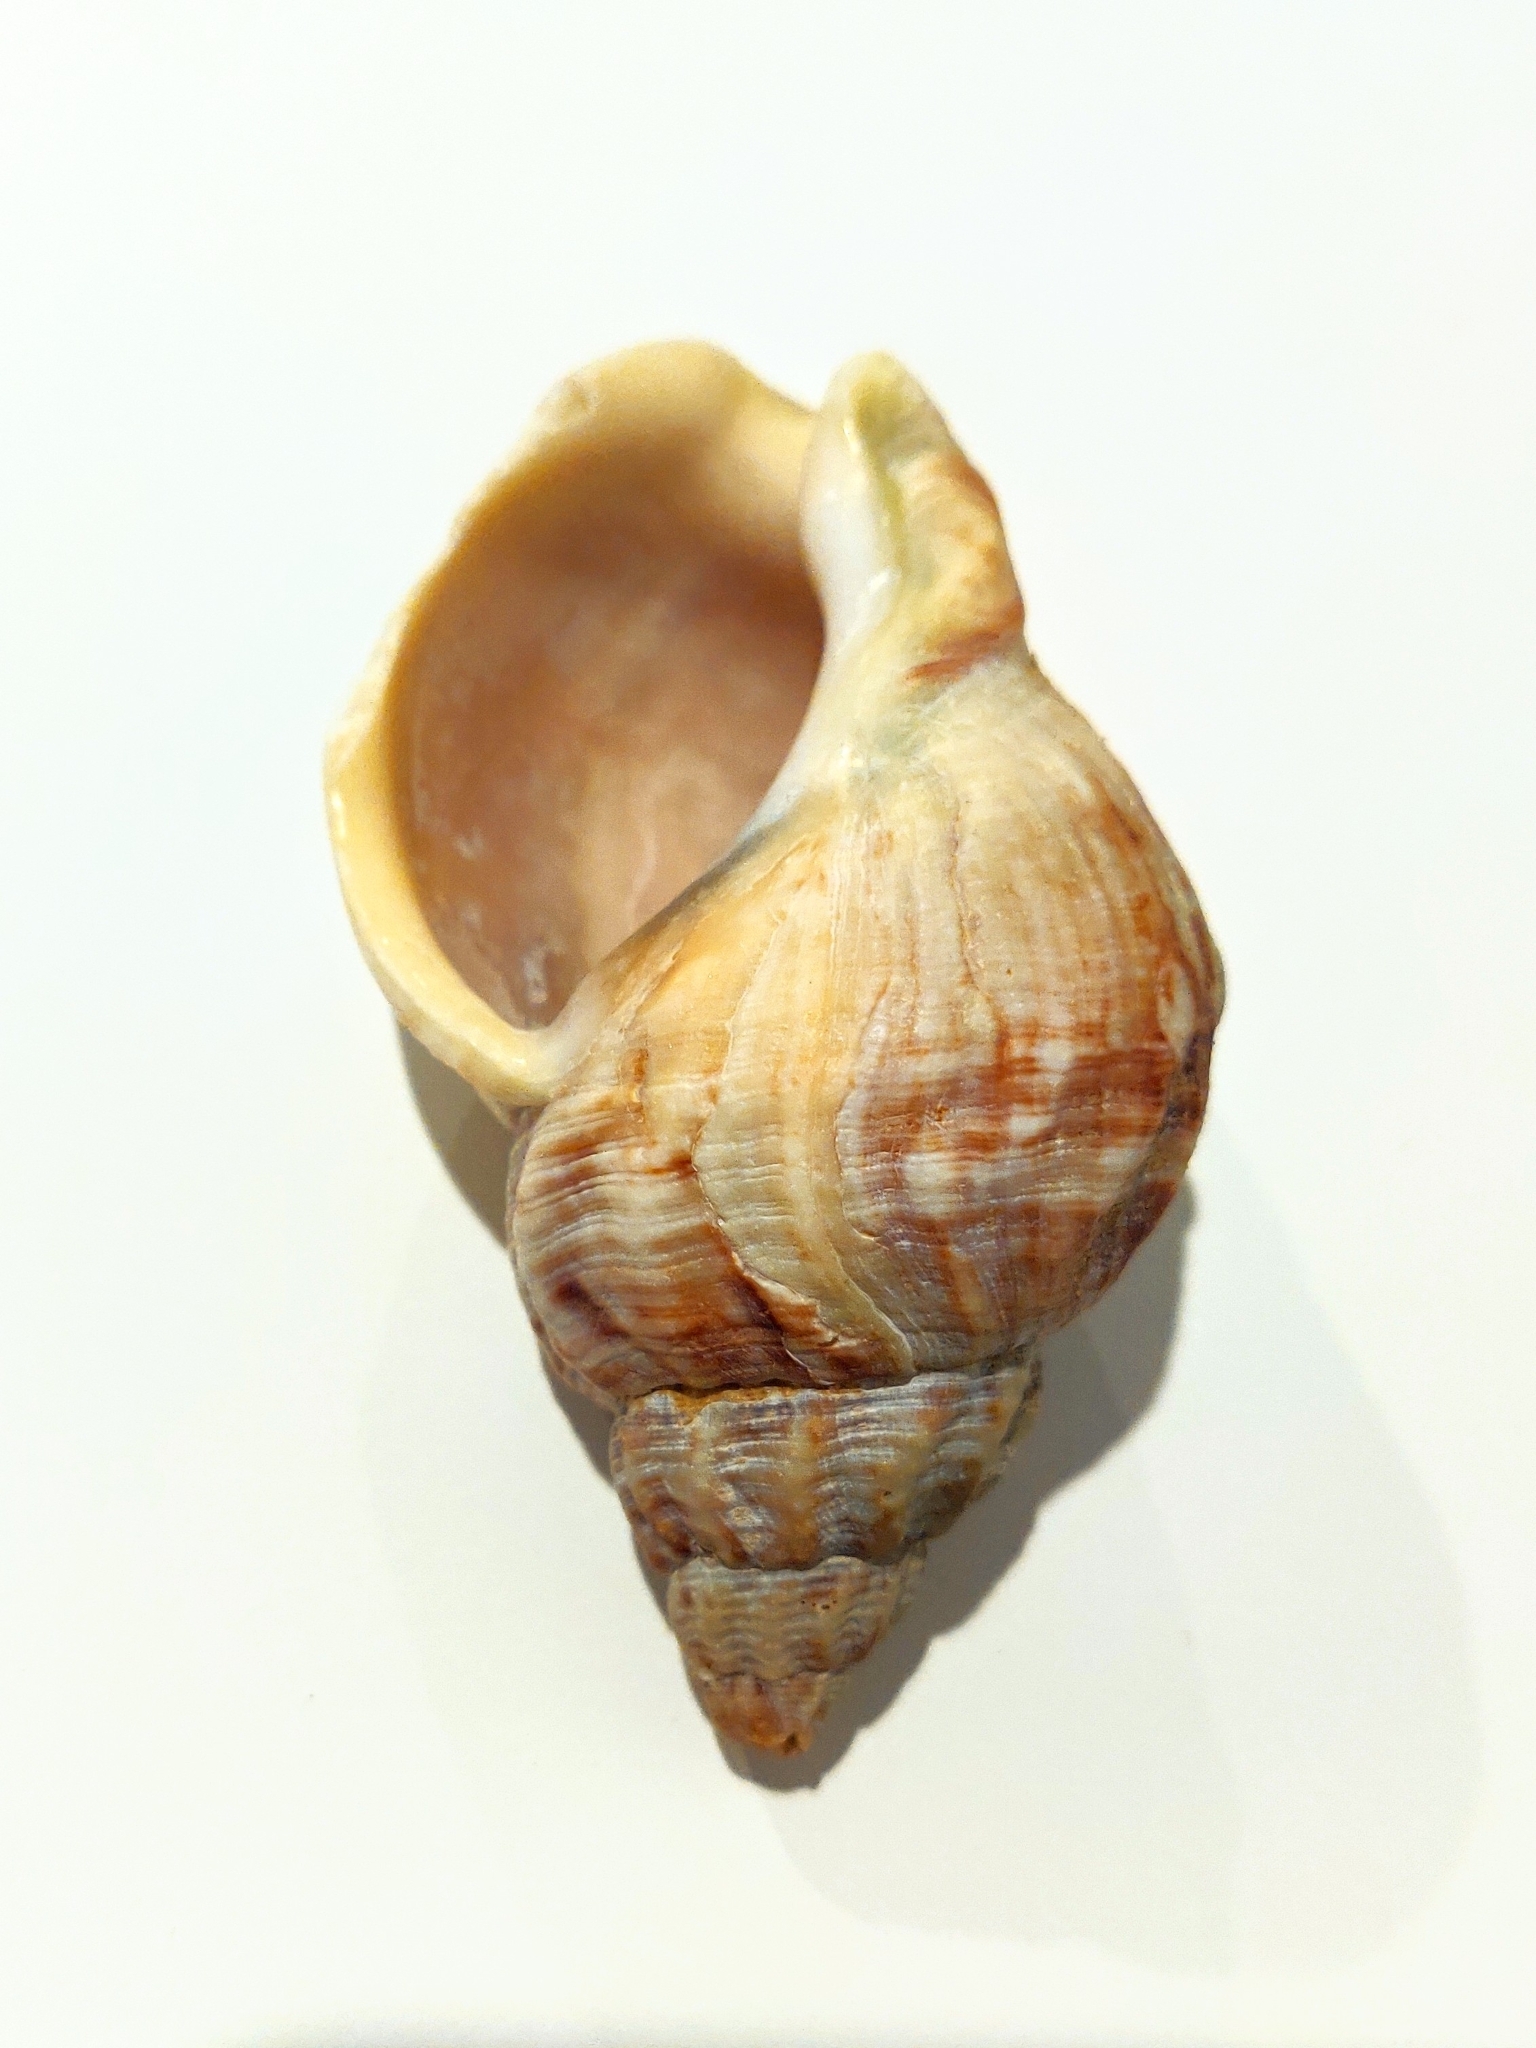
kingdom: Animalia
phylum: Mollusca
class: Gastropoda
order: Neogastropoda
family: Buccinidae
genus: Buccinum
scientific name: Buccinum undatum
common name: Common whelk
